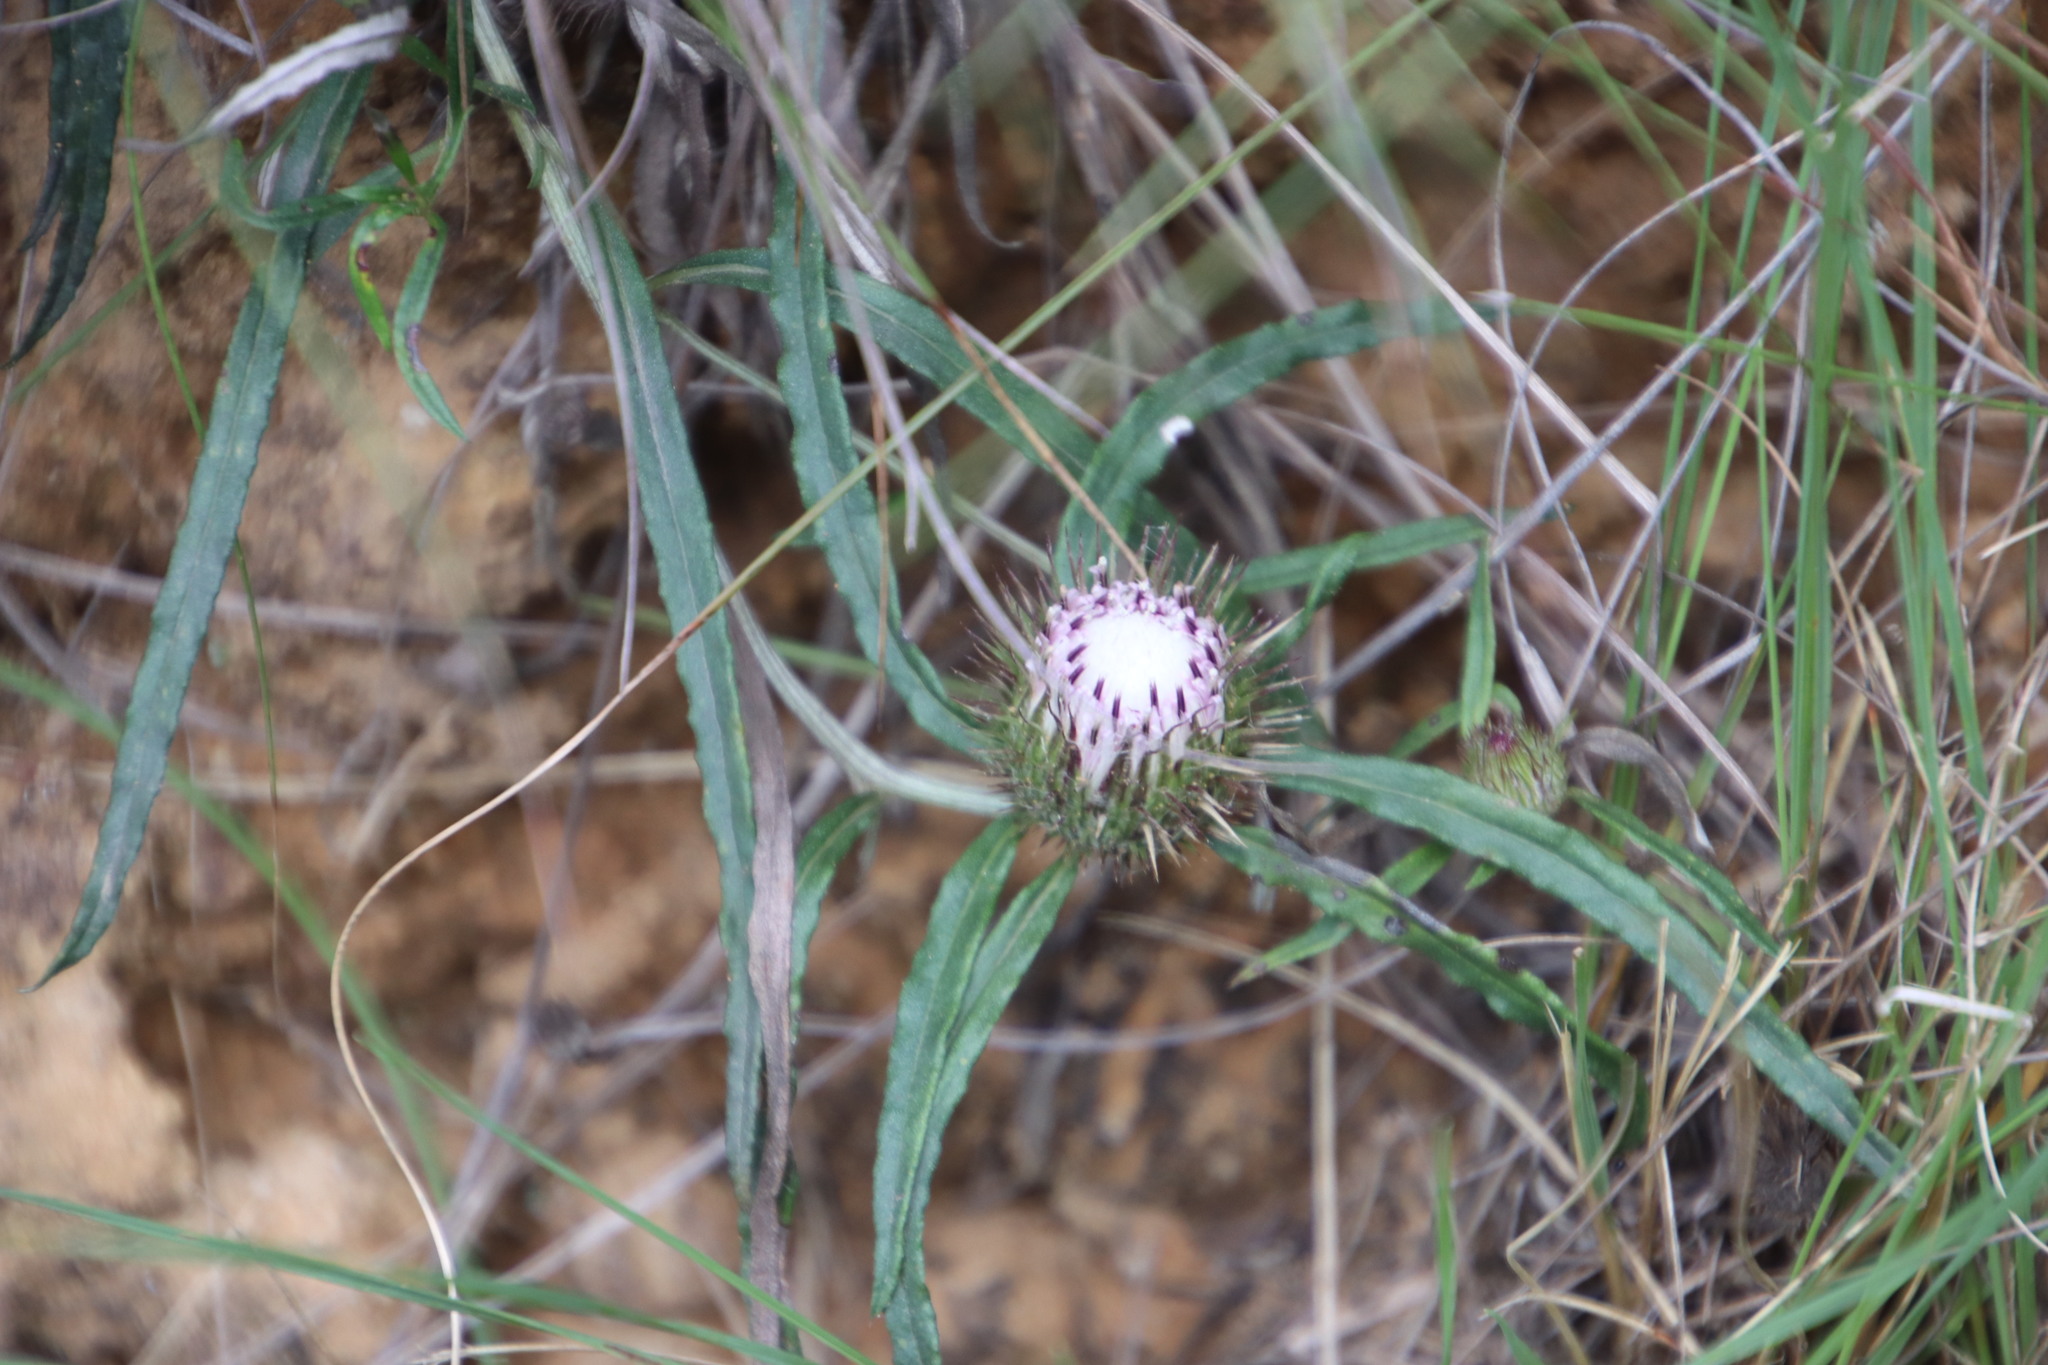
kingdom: Plantae
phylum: Tracheophyta
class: Magnoliopsida
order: Asterales
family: Asteraceae
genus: Dicoma
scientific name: Dicoma anomala
